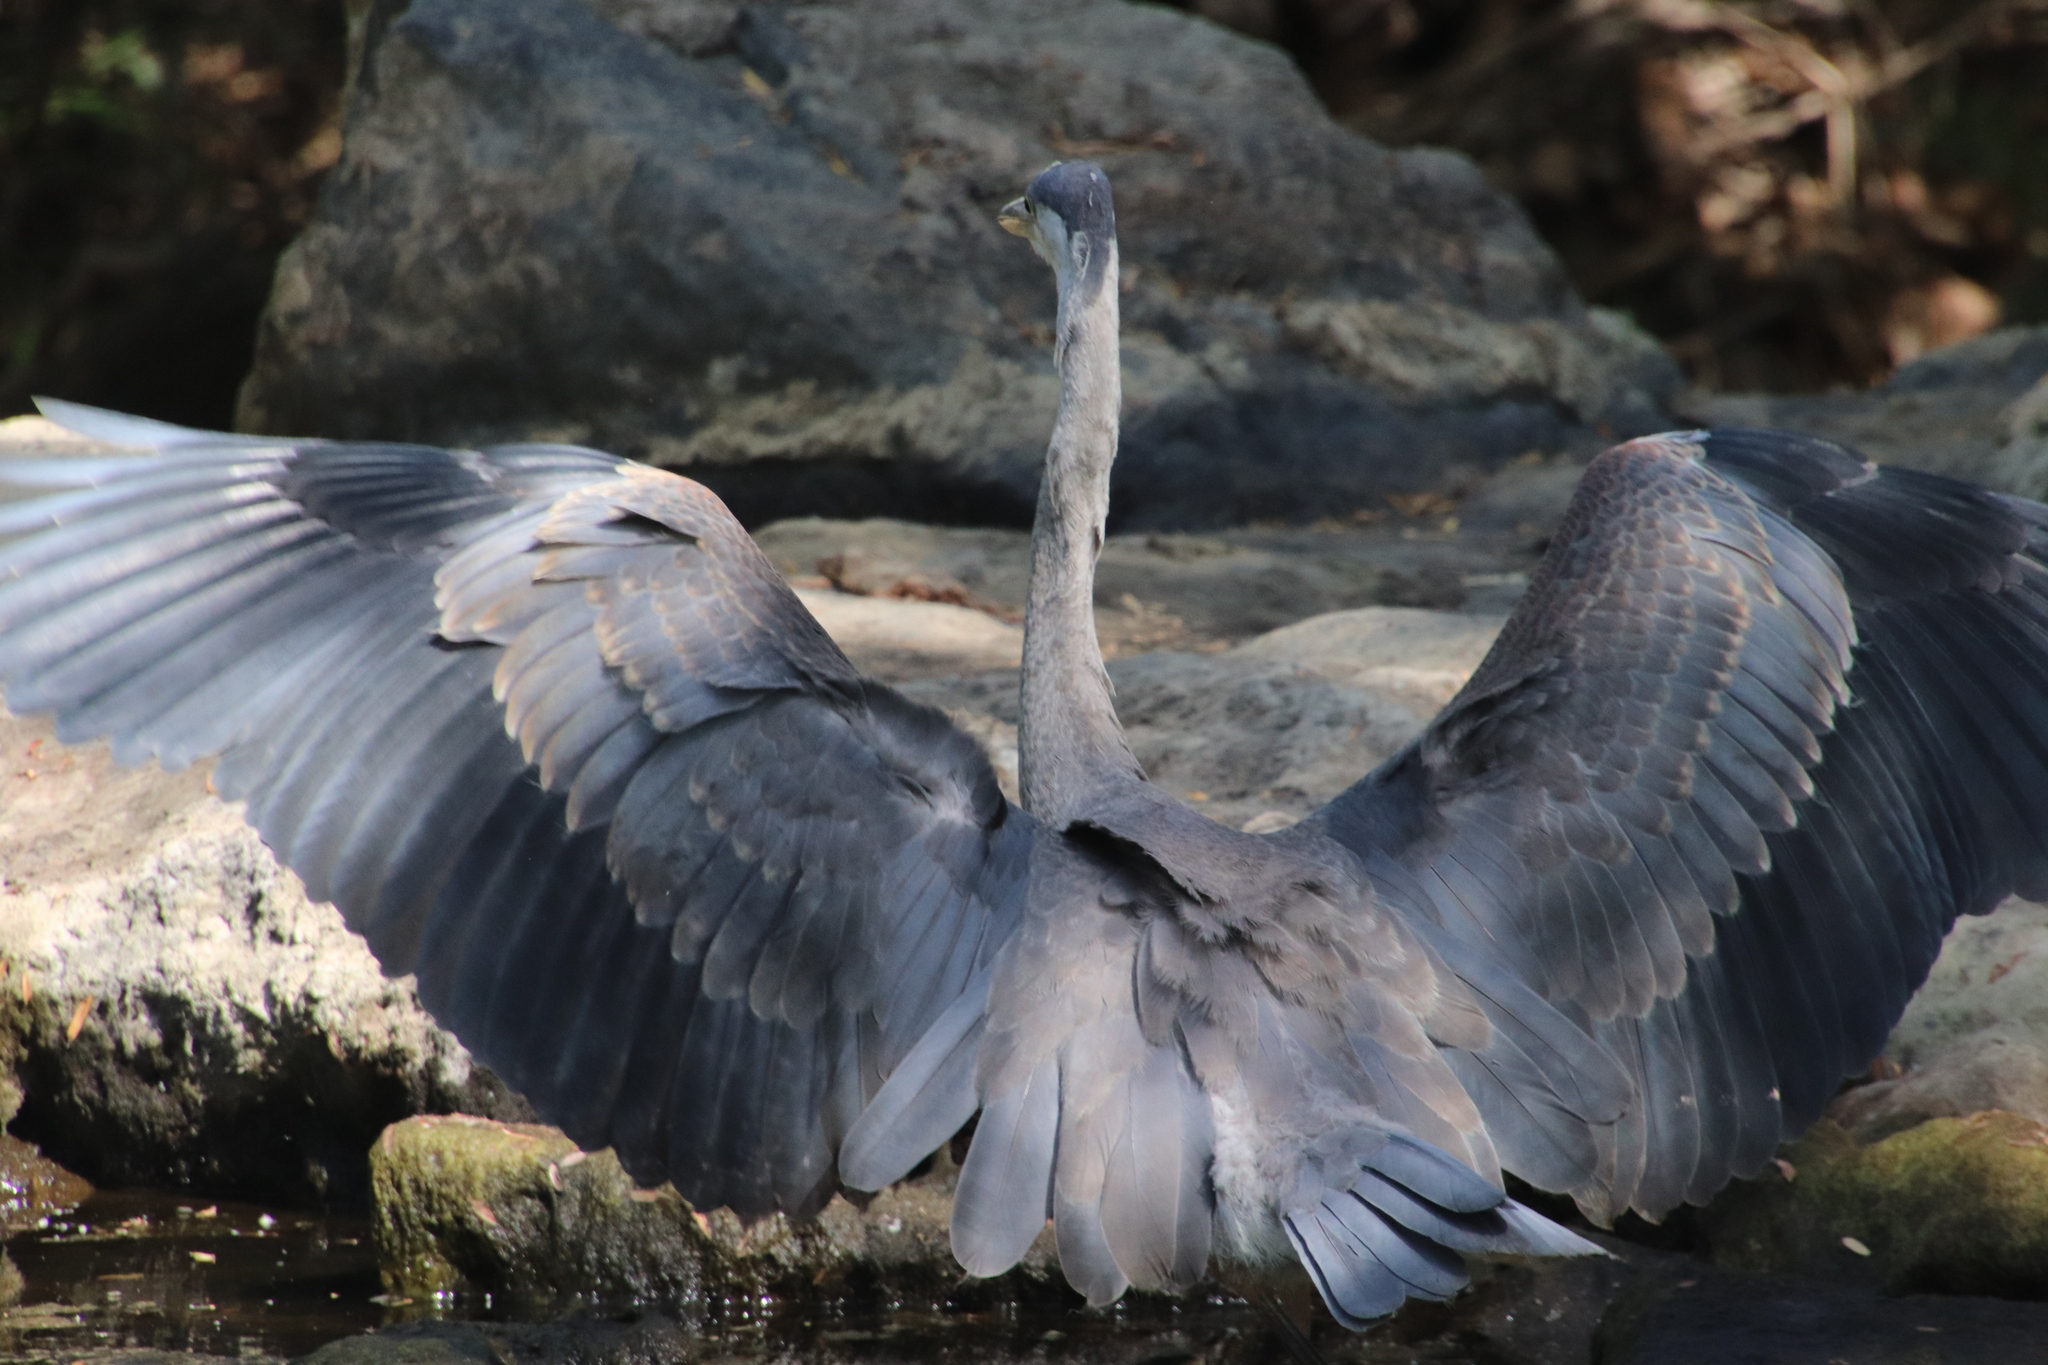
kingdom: Animalia
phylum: Chordata
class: Aves
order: Pelecaniformes
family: Ardeidae
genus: Ardea
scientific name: Ardea herodias
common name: Great blue heron
